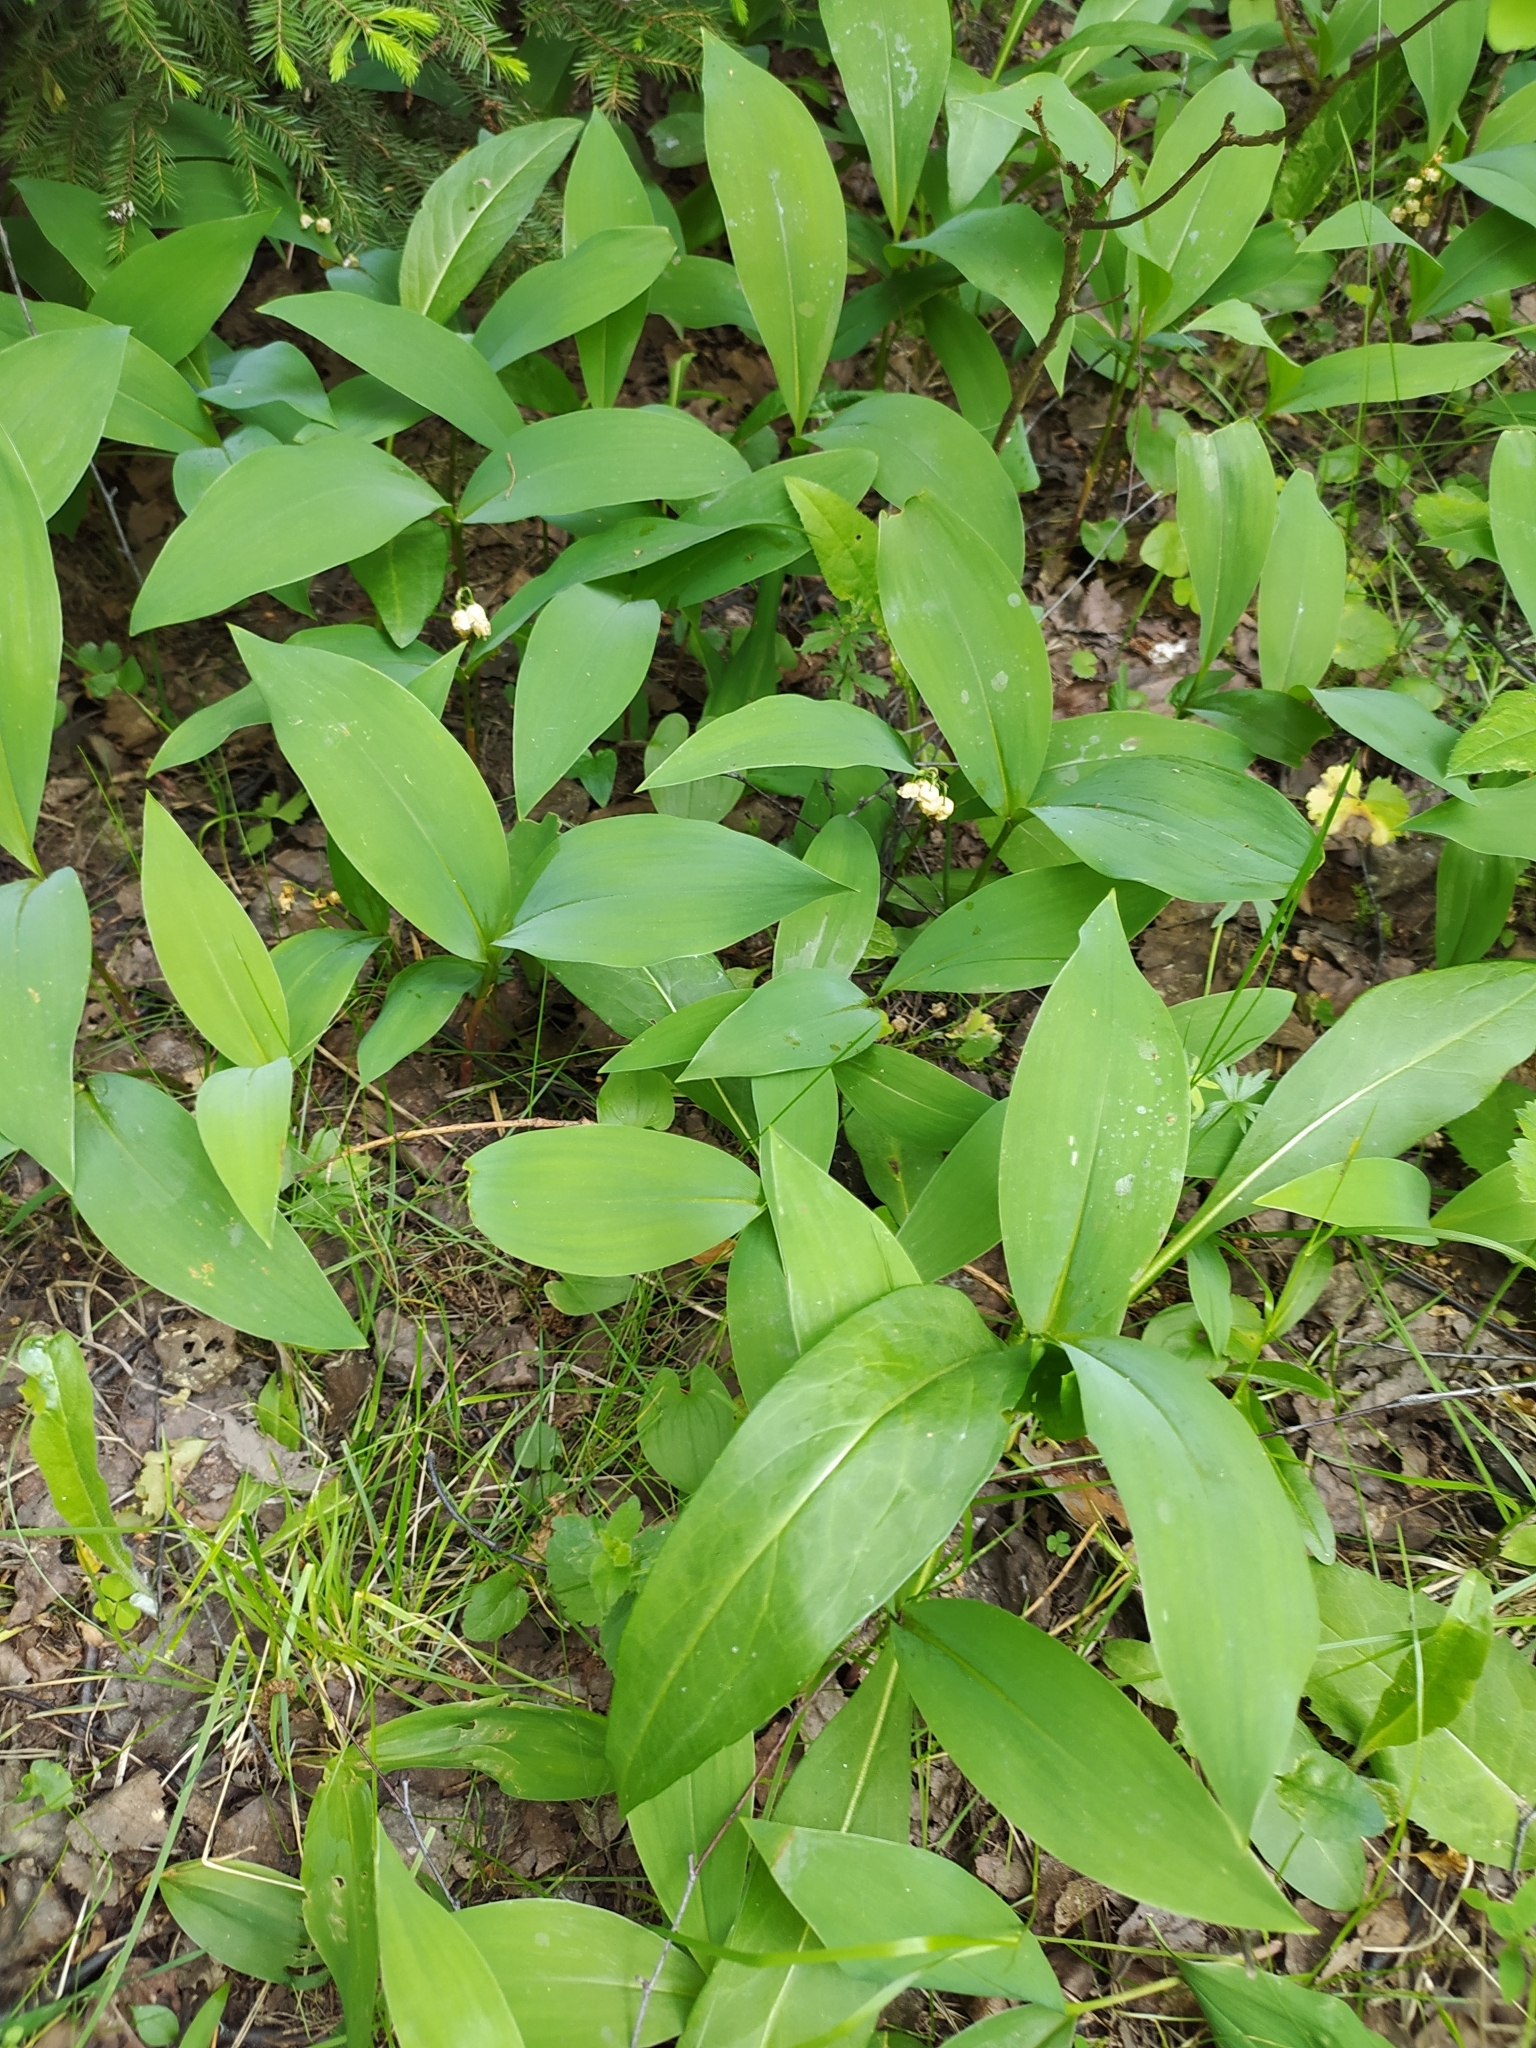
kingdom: Plantae
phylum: Tracheophyta
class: Liliopsida
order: Asparagales
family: Asparagaceae
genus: Convallaria
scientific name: Convallaria majalis
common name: Lily-of-the-valley
